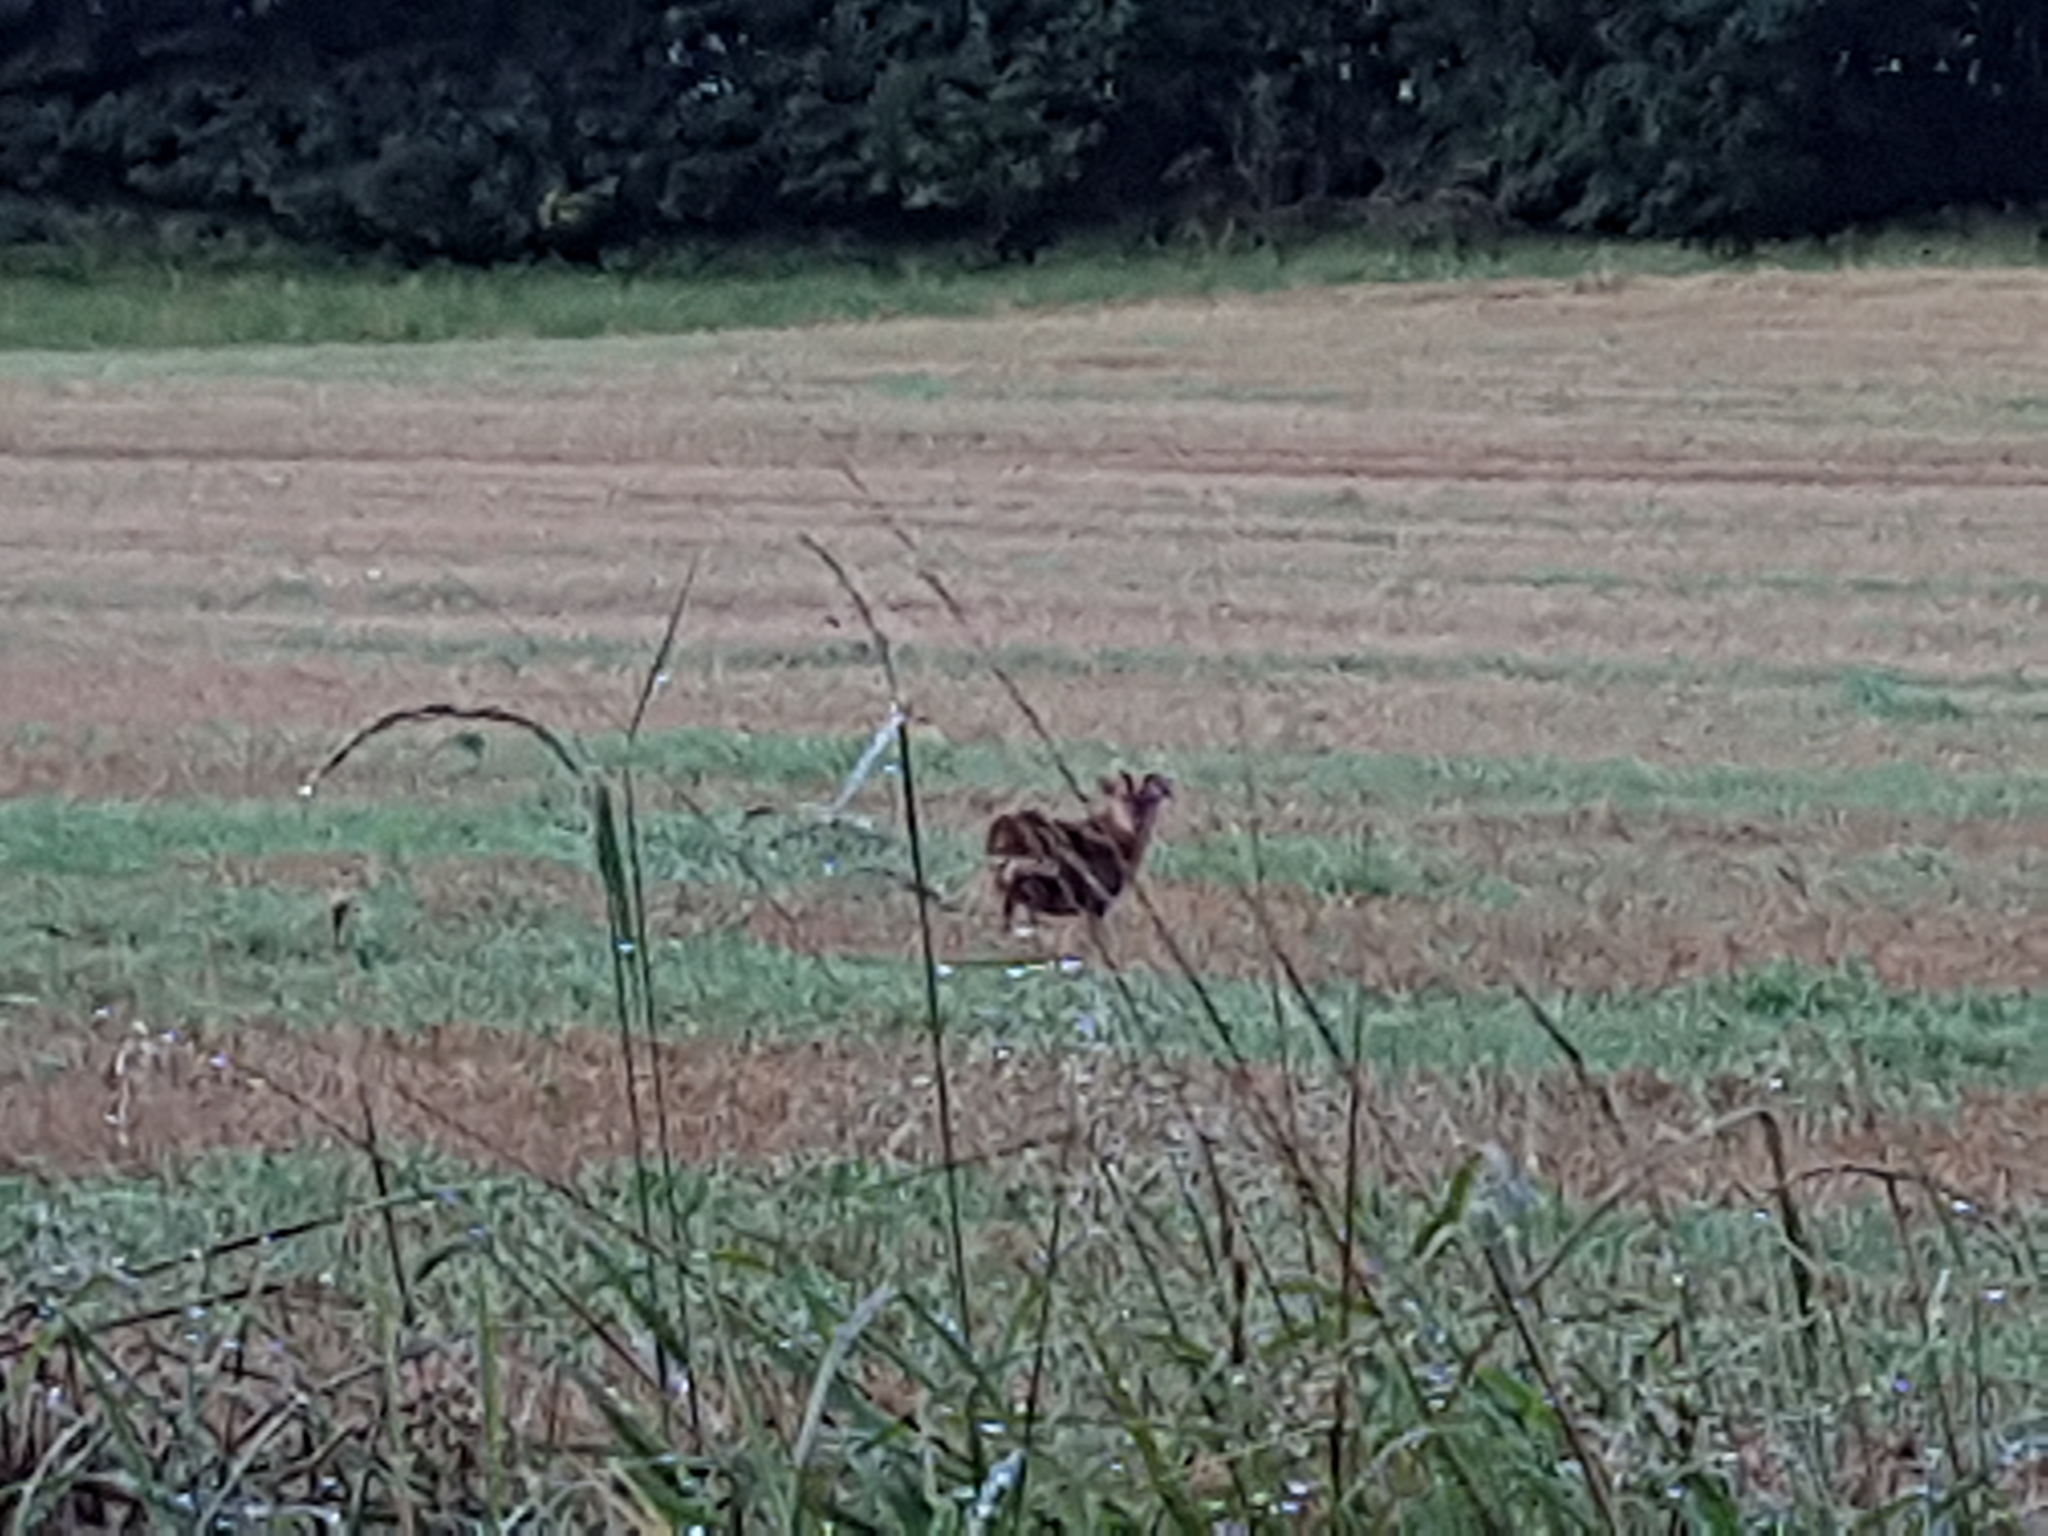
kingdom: Animalia
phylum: Chordata
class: Mammalia
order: Artiodactyla
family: Cervidae
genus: Muntiacus
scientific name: Muntiacus reevesi
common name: Reeves' muntjac
